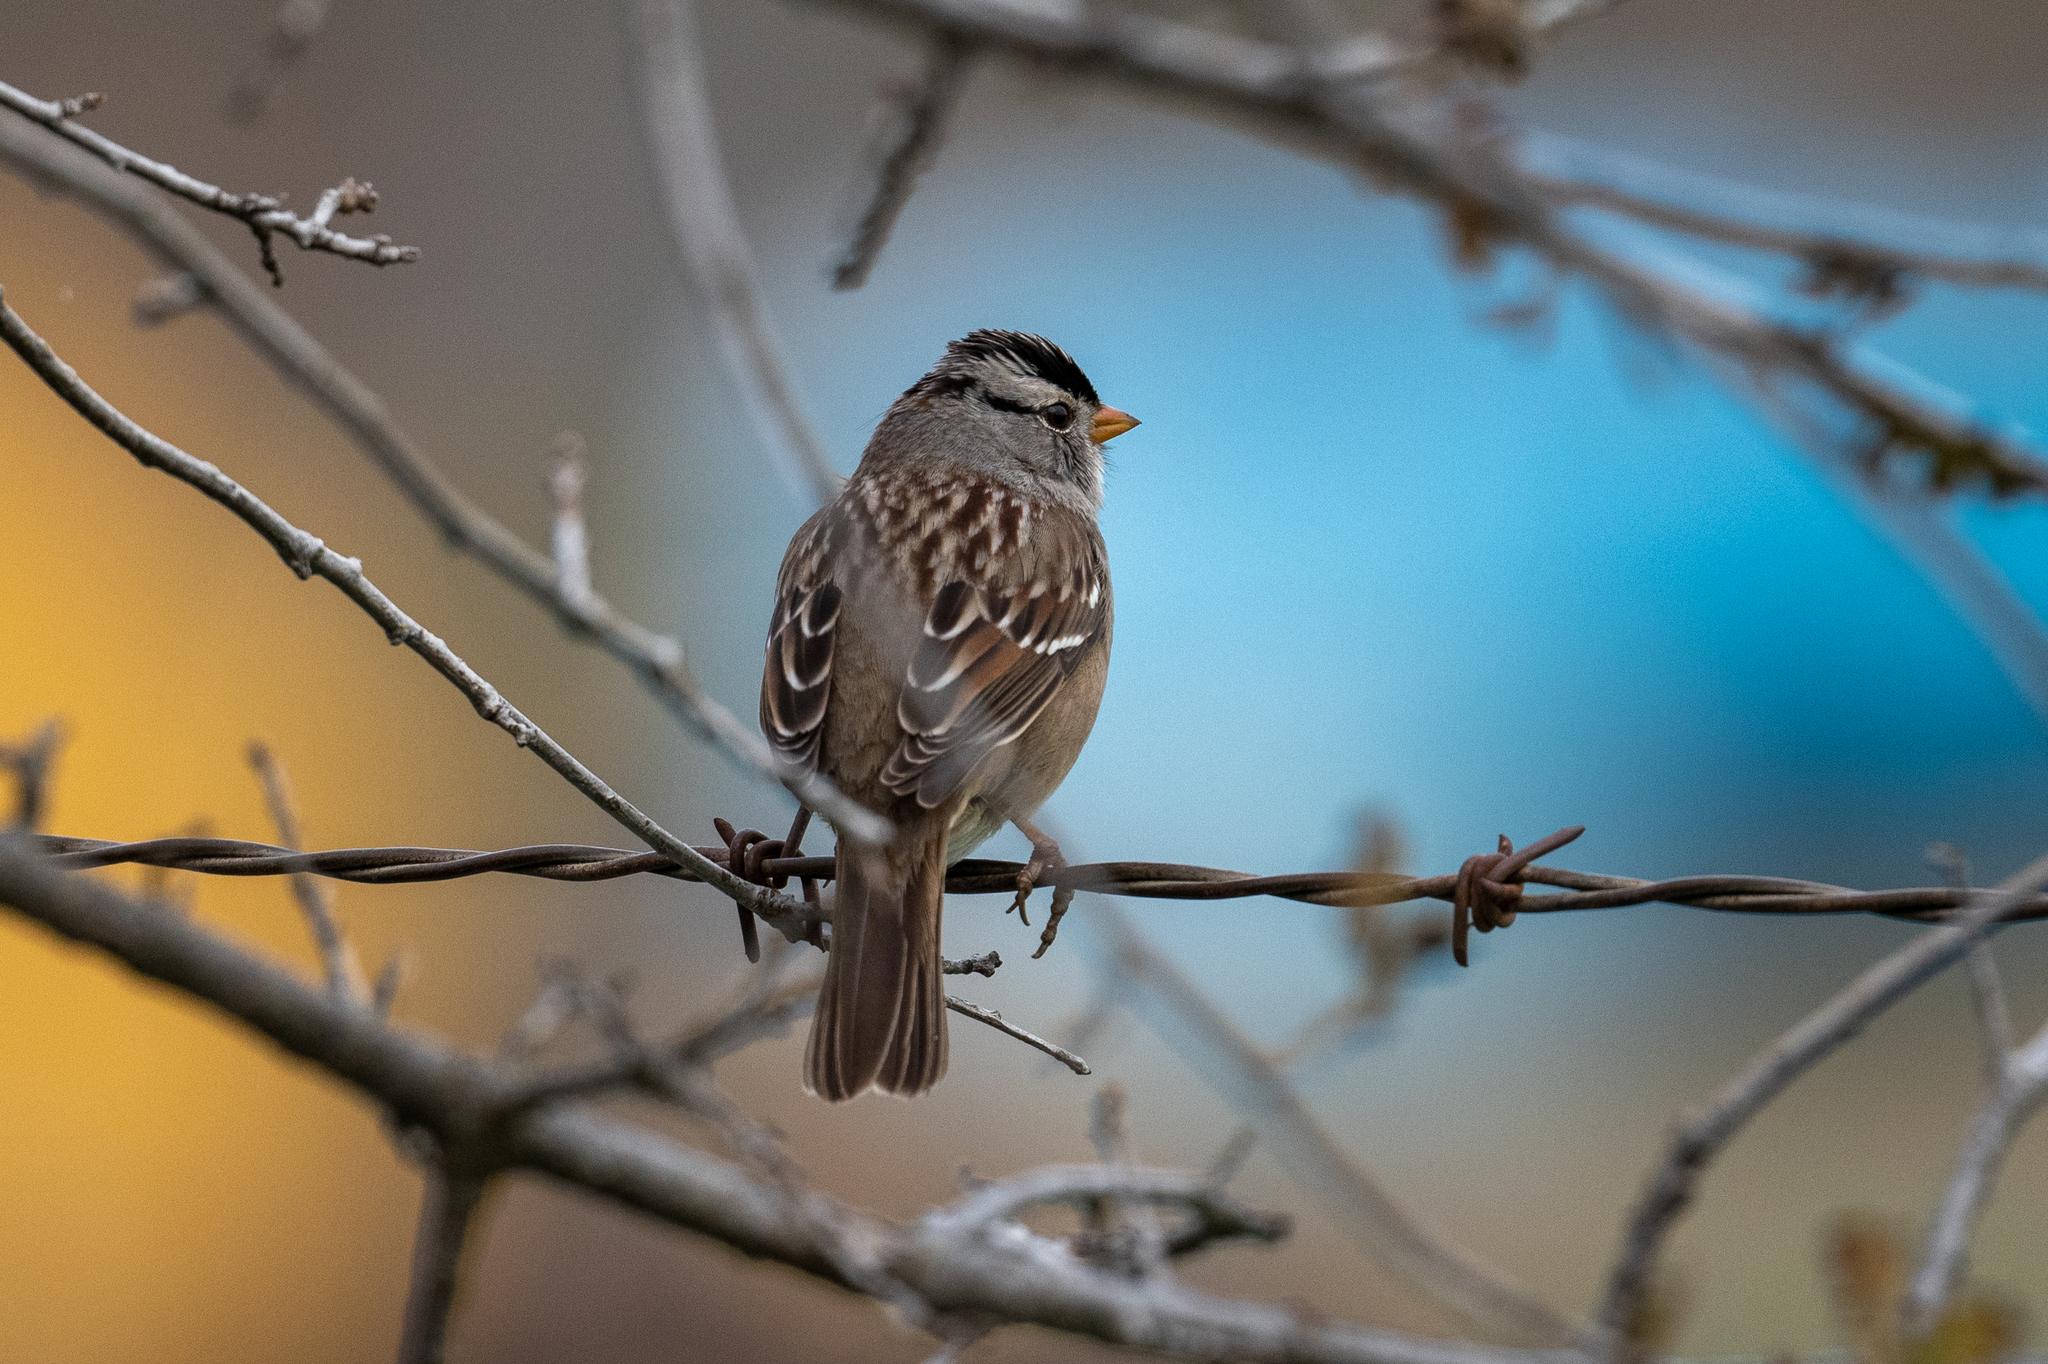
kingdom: Animalia
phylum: Chordata
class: Aves
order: Passeriformes
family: Passerellidae
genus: Zonotrichia
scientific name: Zonotrichia leucophrys
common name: White-crowned sparrow
